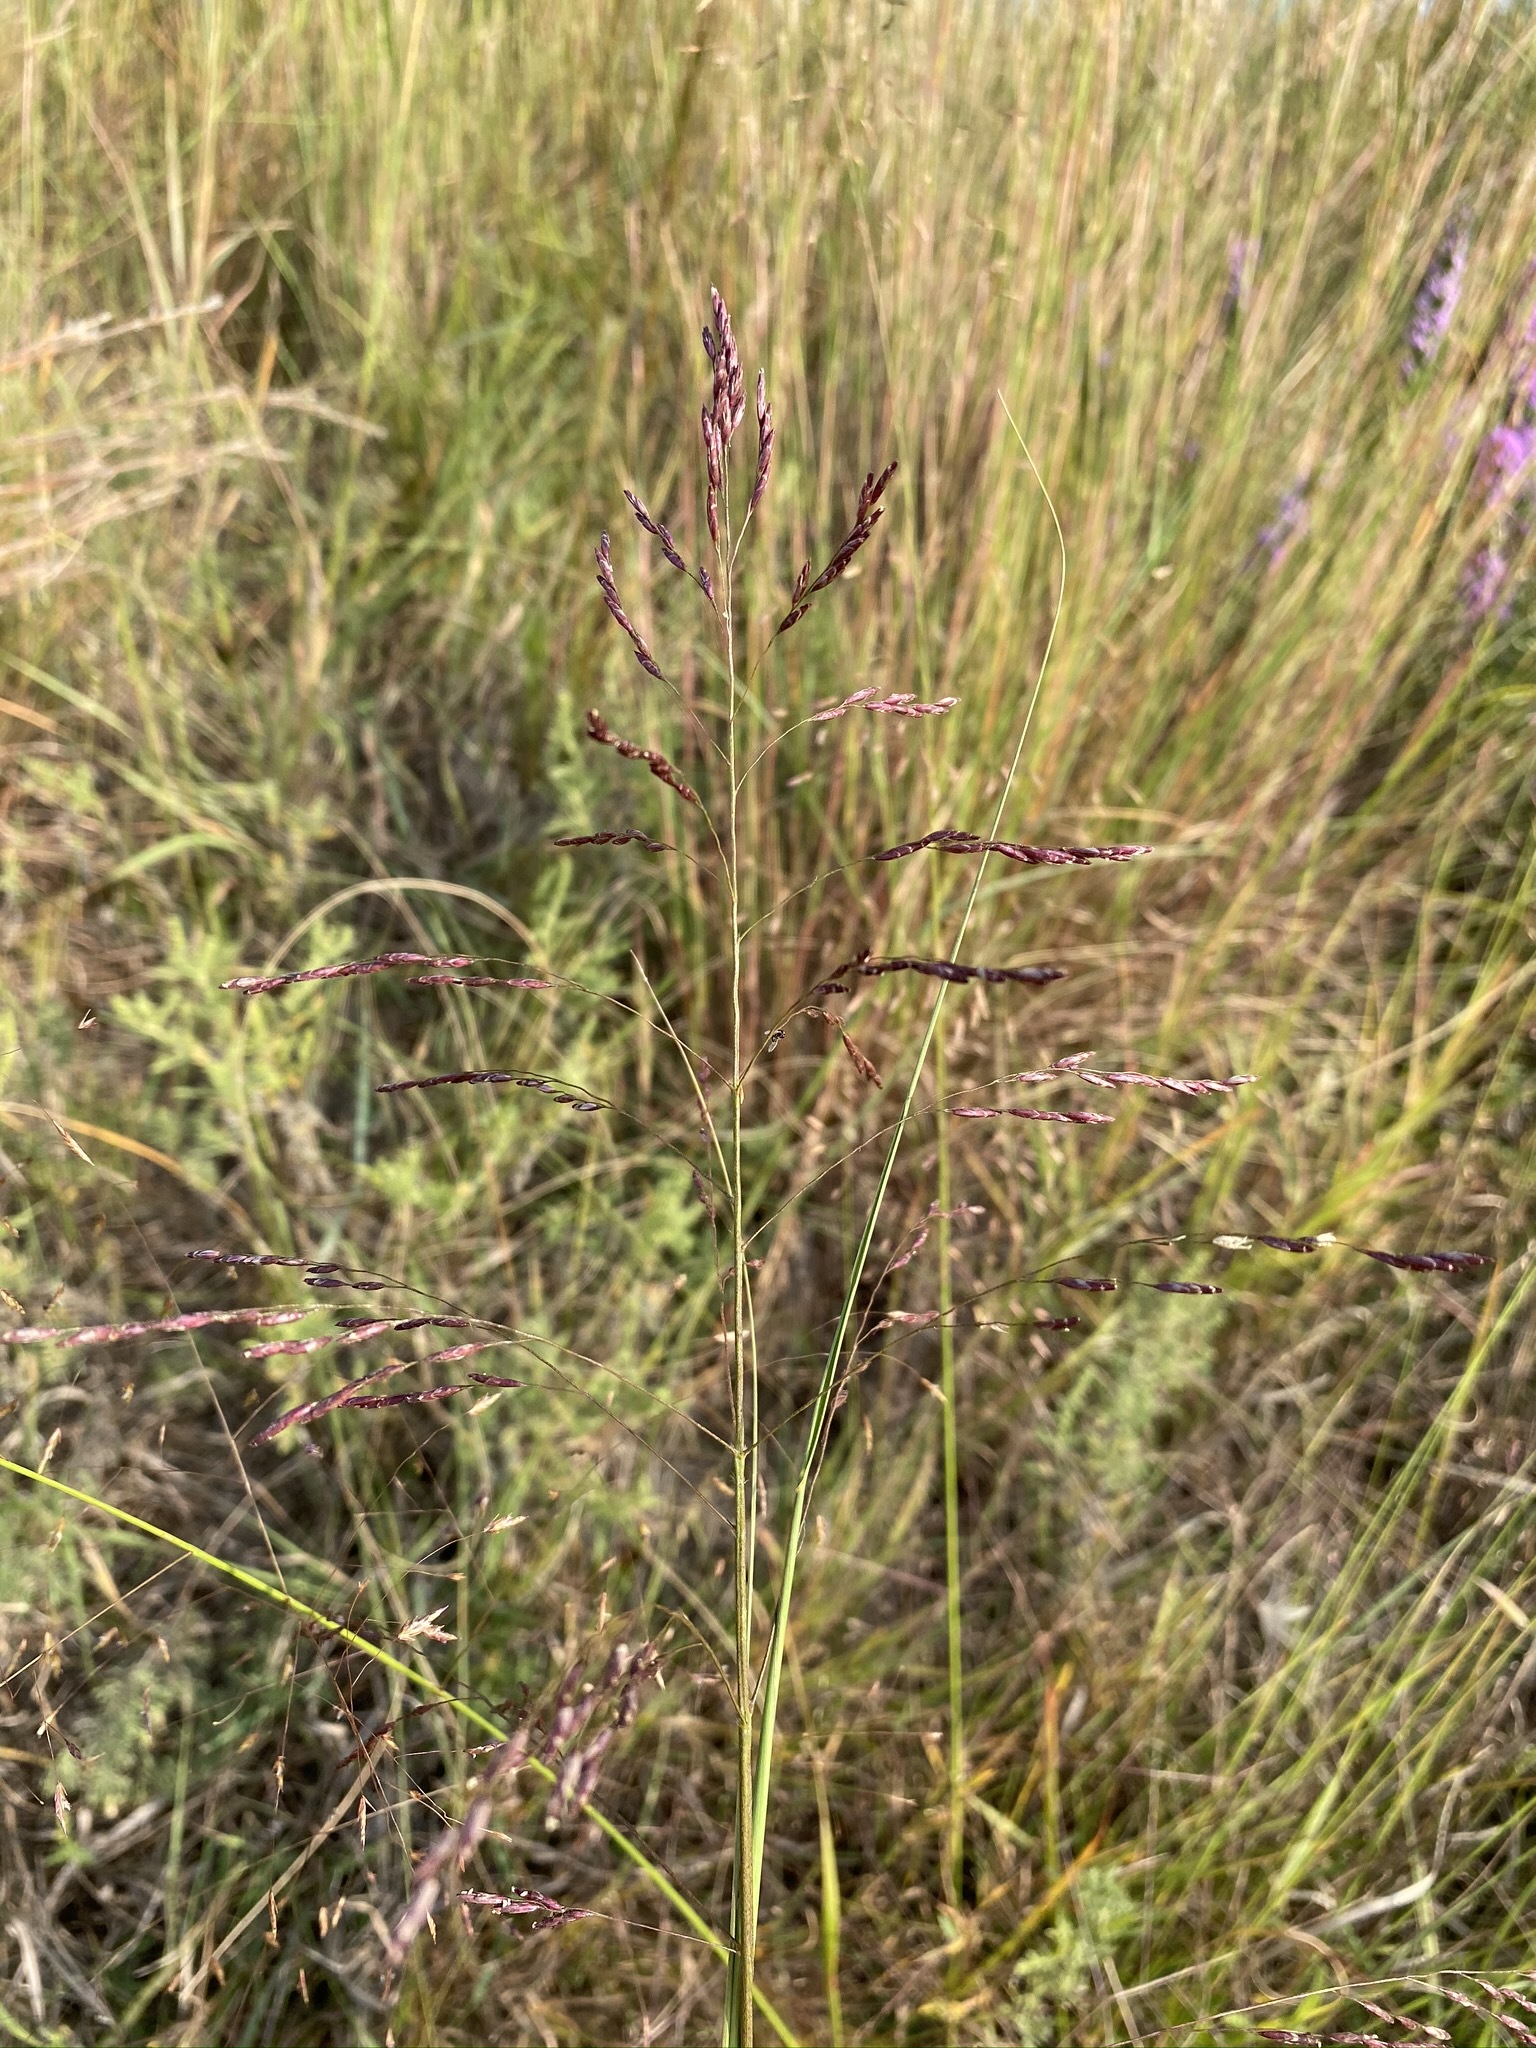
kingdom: Plantae
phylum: Tracheophyta
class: Liliopsida
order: Poales
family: Poaceae
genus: Tridens
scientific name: Tridens flavus
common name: Purpletop
